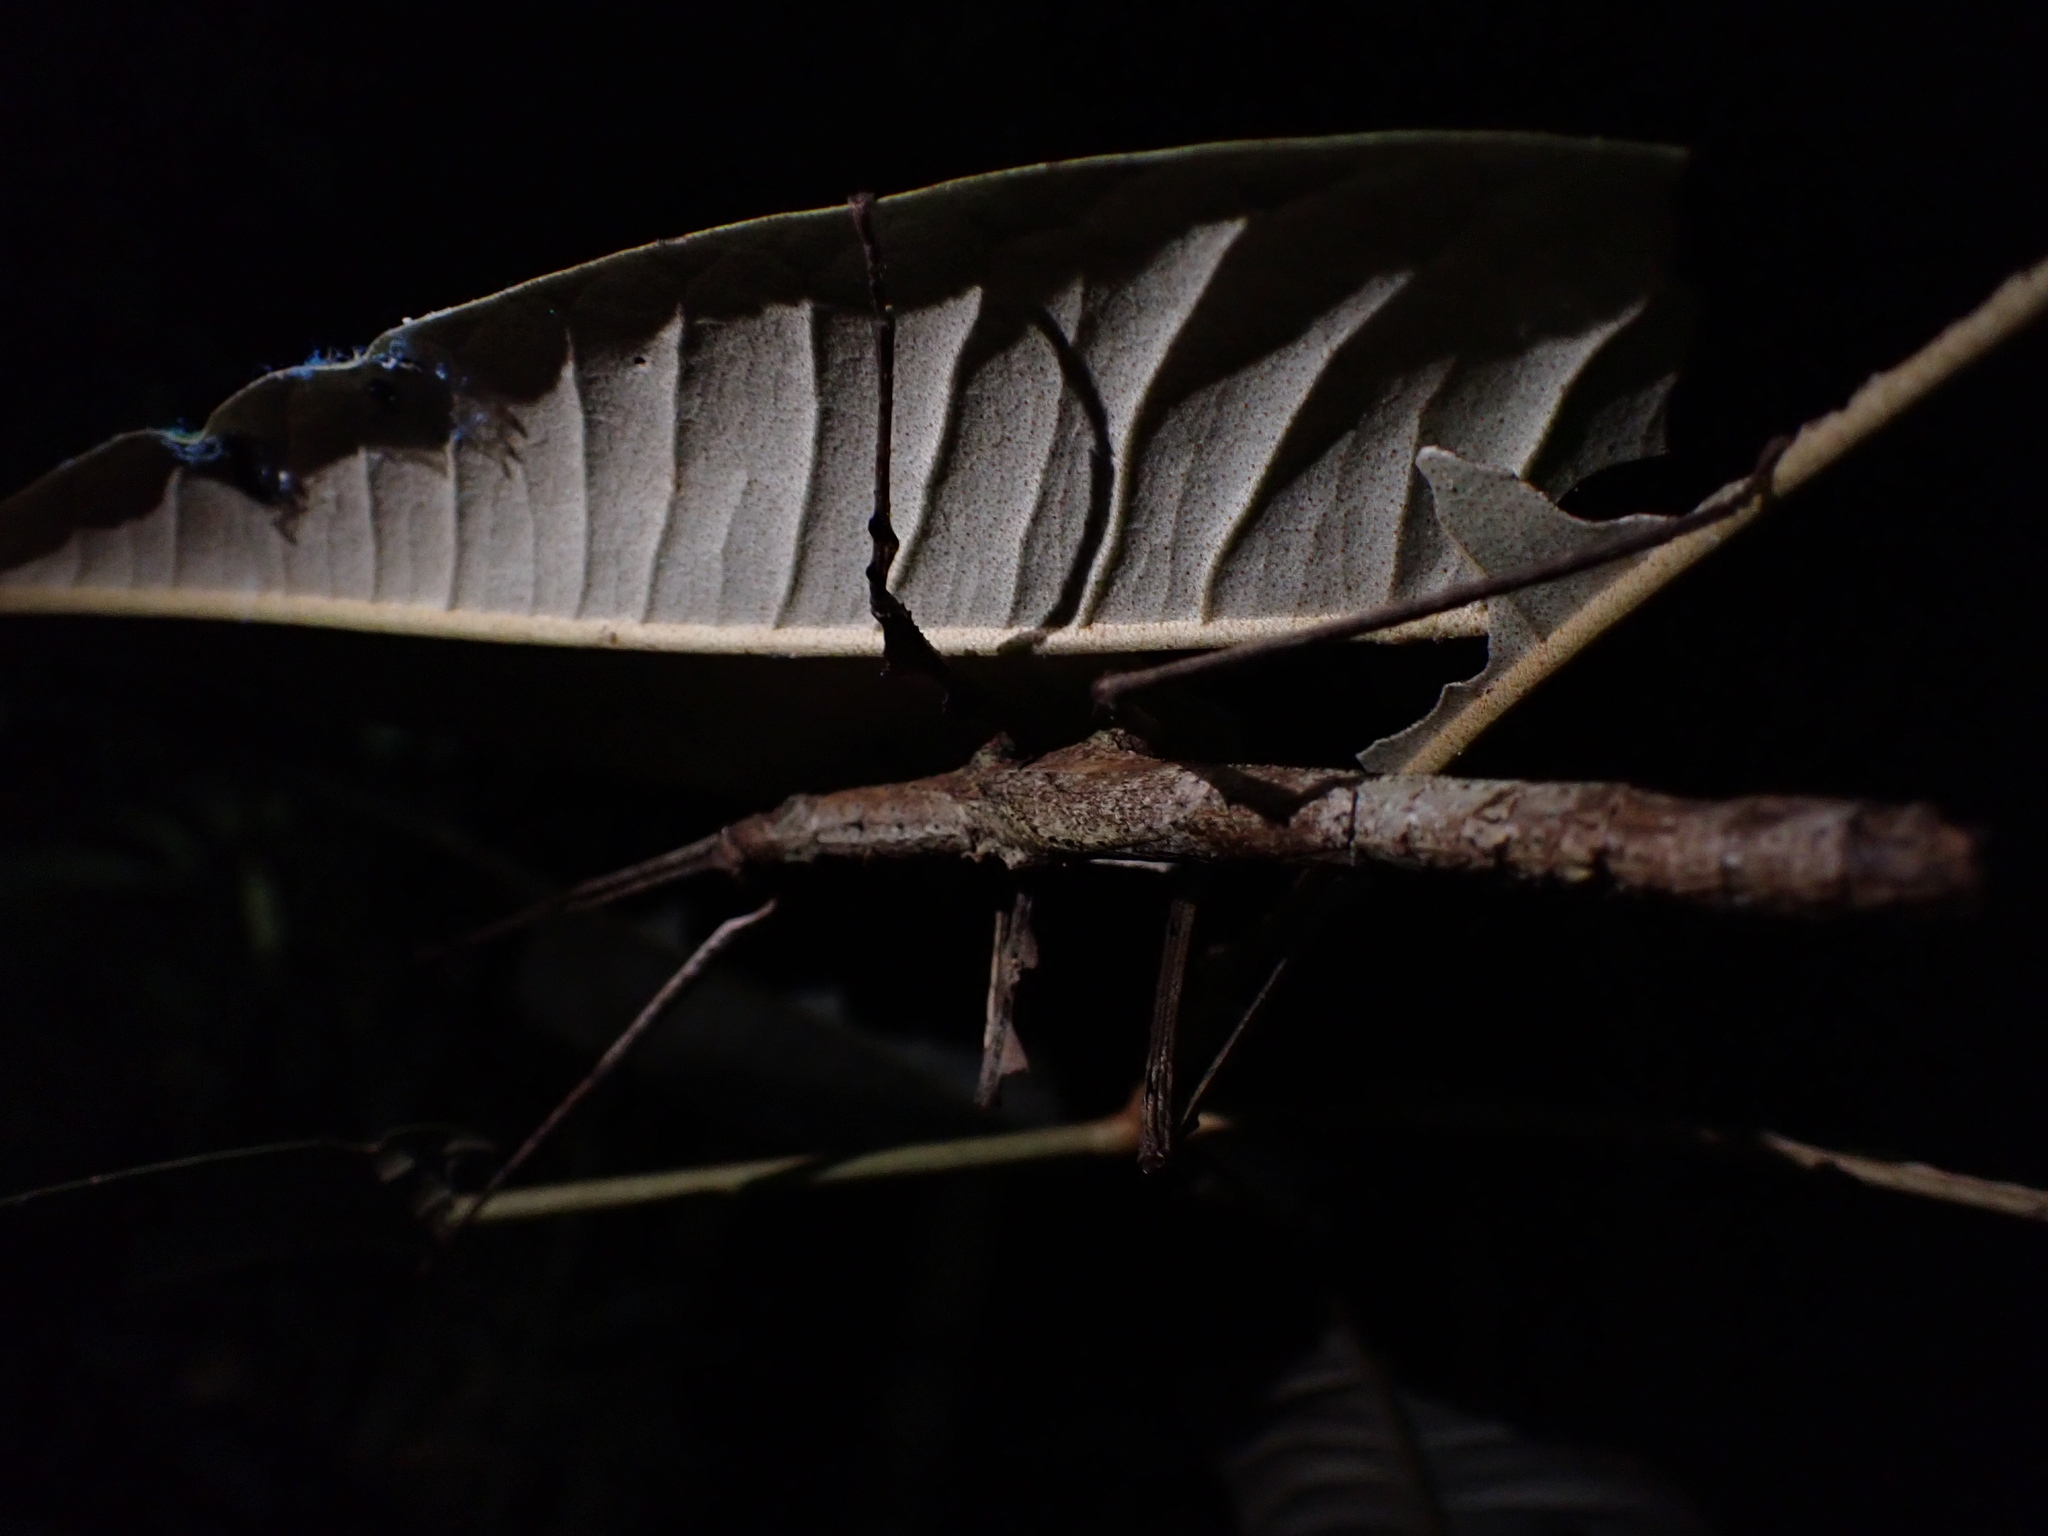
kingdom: Animalia
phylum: Arthropoda
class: Insecta
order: Phasmida
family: Phasmatidae
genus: Onchestus
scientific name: Onchestus rentzi
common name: Rentz's stick-insect
